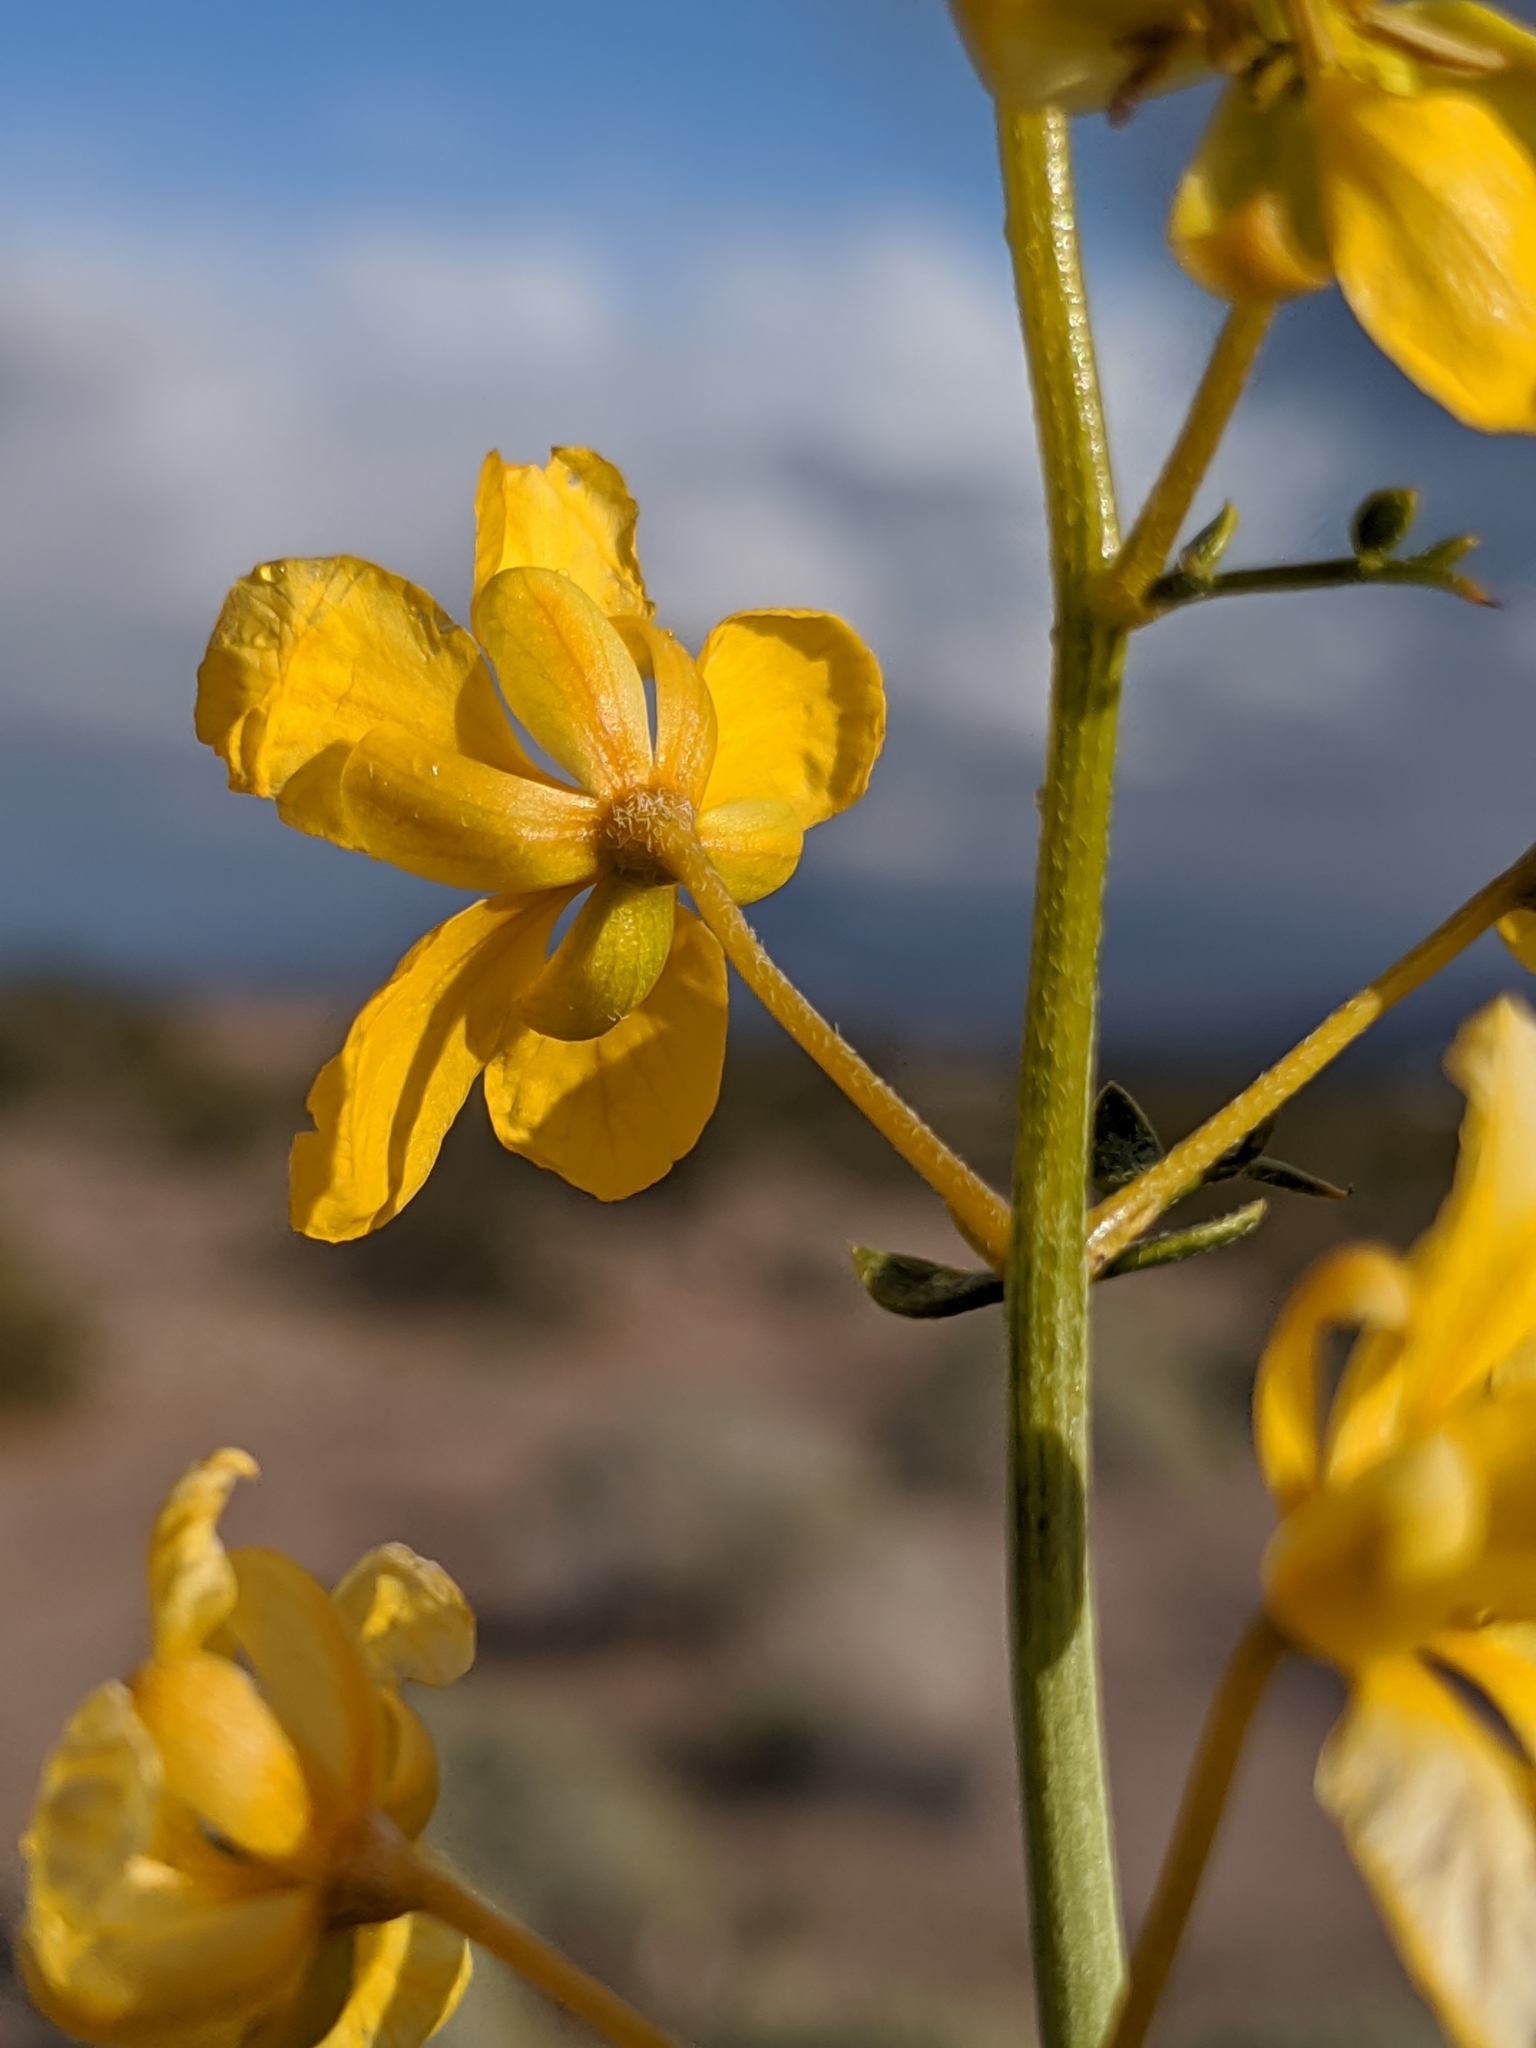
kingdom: Plantae
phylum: Tracheophyta
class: Magnoliopsida
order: Fabales
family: Fabaceae
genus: Senna
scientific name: Senna armata
